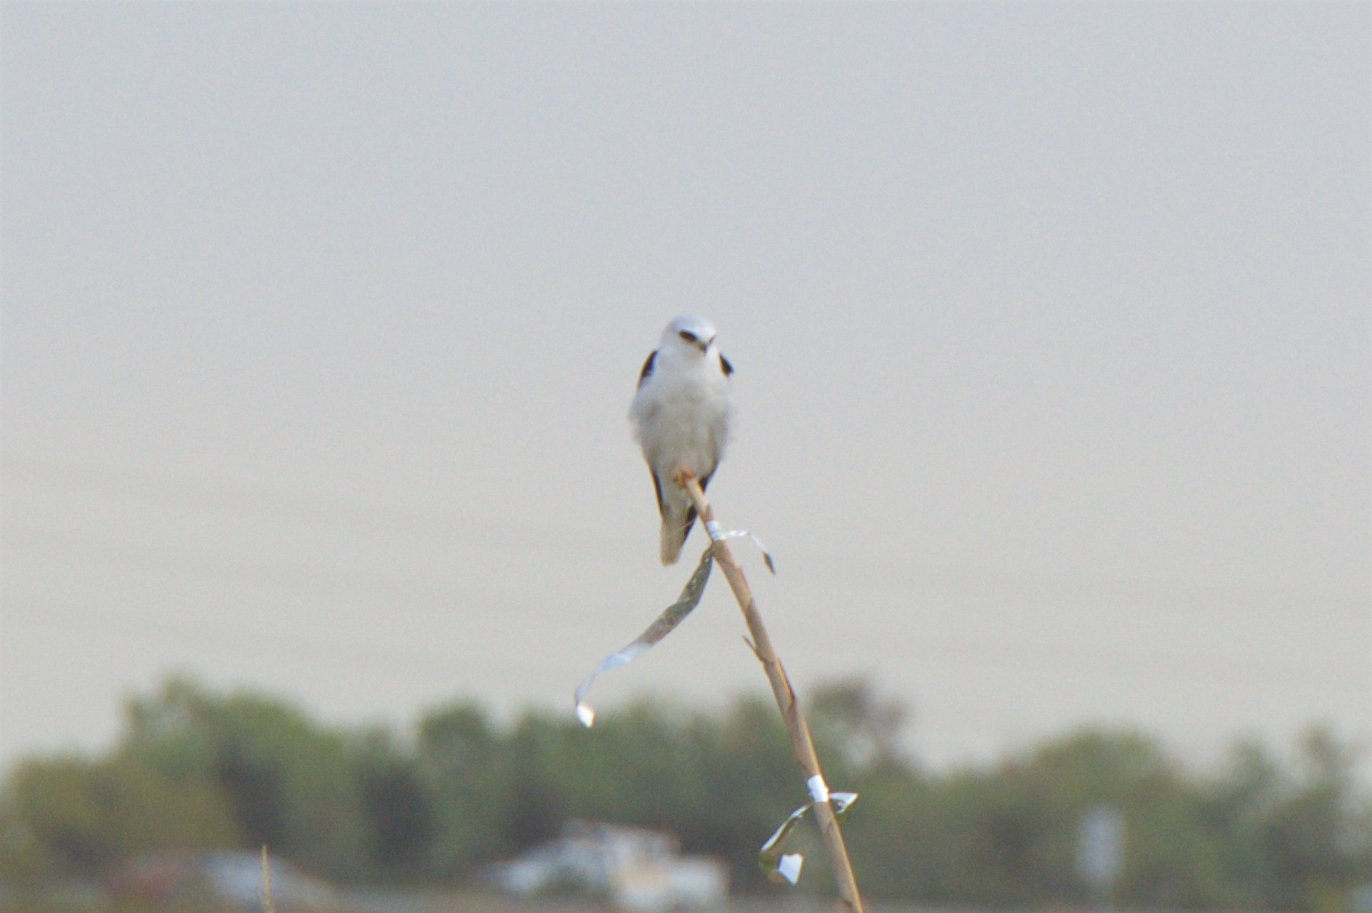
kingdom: Animalia
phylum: Chordata
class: Aves
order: Accipitriformes
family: Accipitridae
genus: Elanus
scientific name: Elanus leucurus
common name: White-tailed kite
